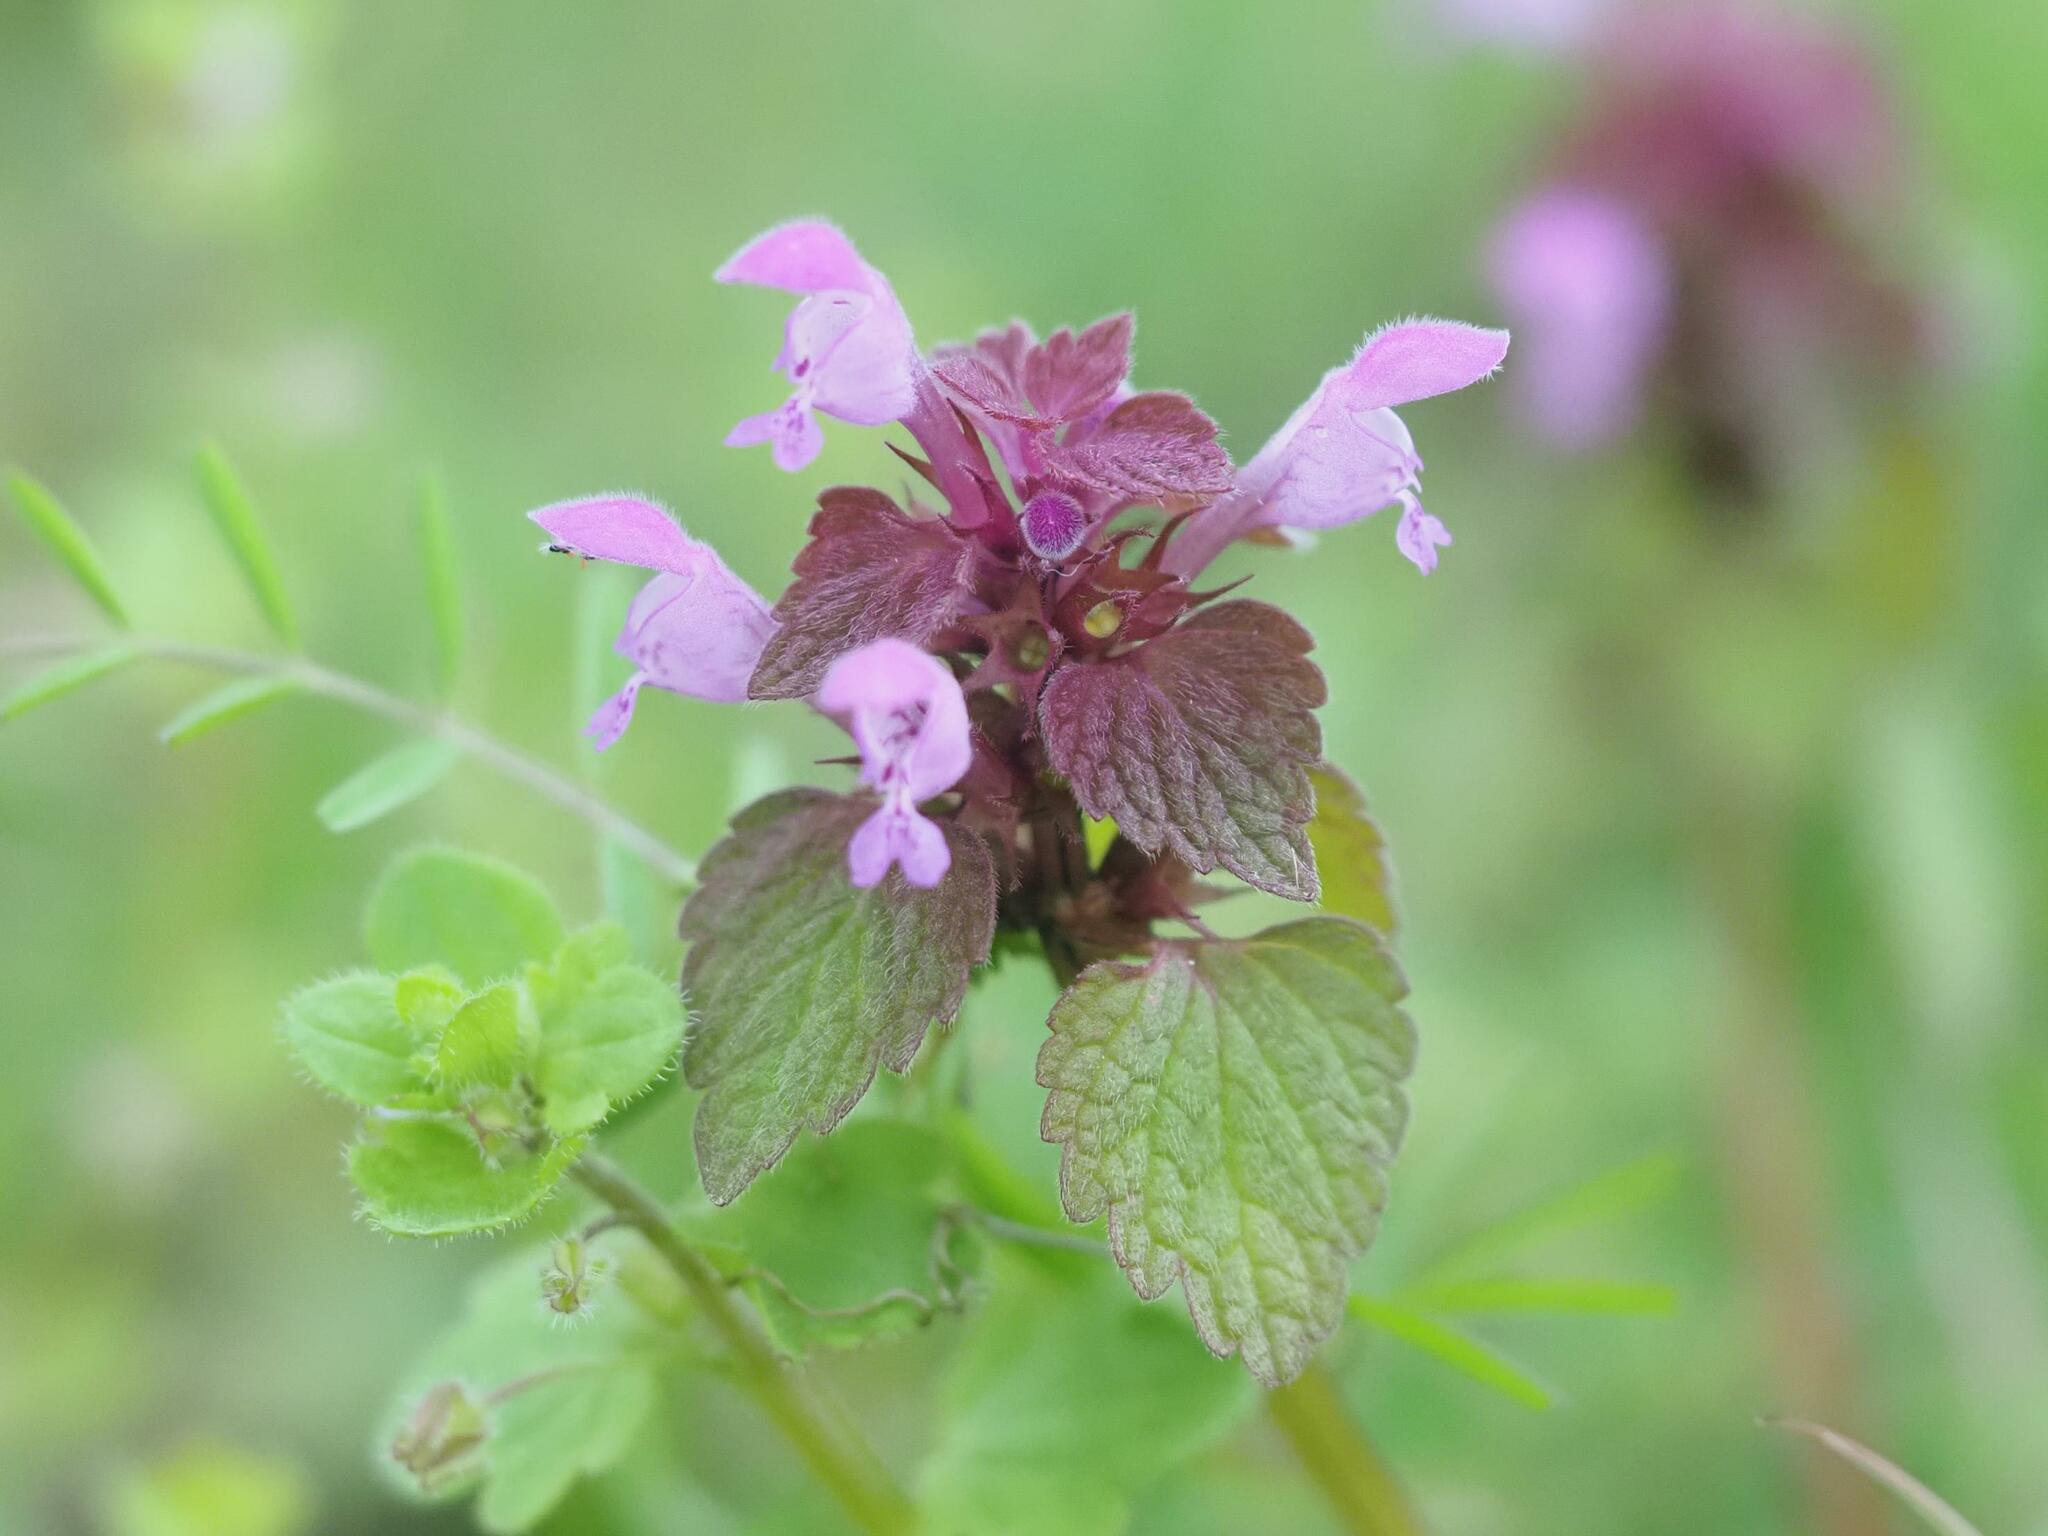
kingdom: Plantae
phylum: Tracheophyta
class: Magnoliopsida
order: Lamiales
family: Lamiaceae
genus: Lamium
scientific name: Lamium purpureum
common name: Red dead-nettle
